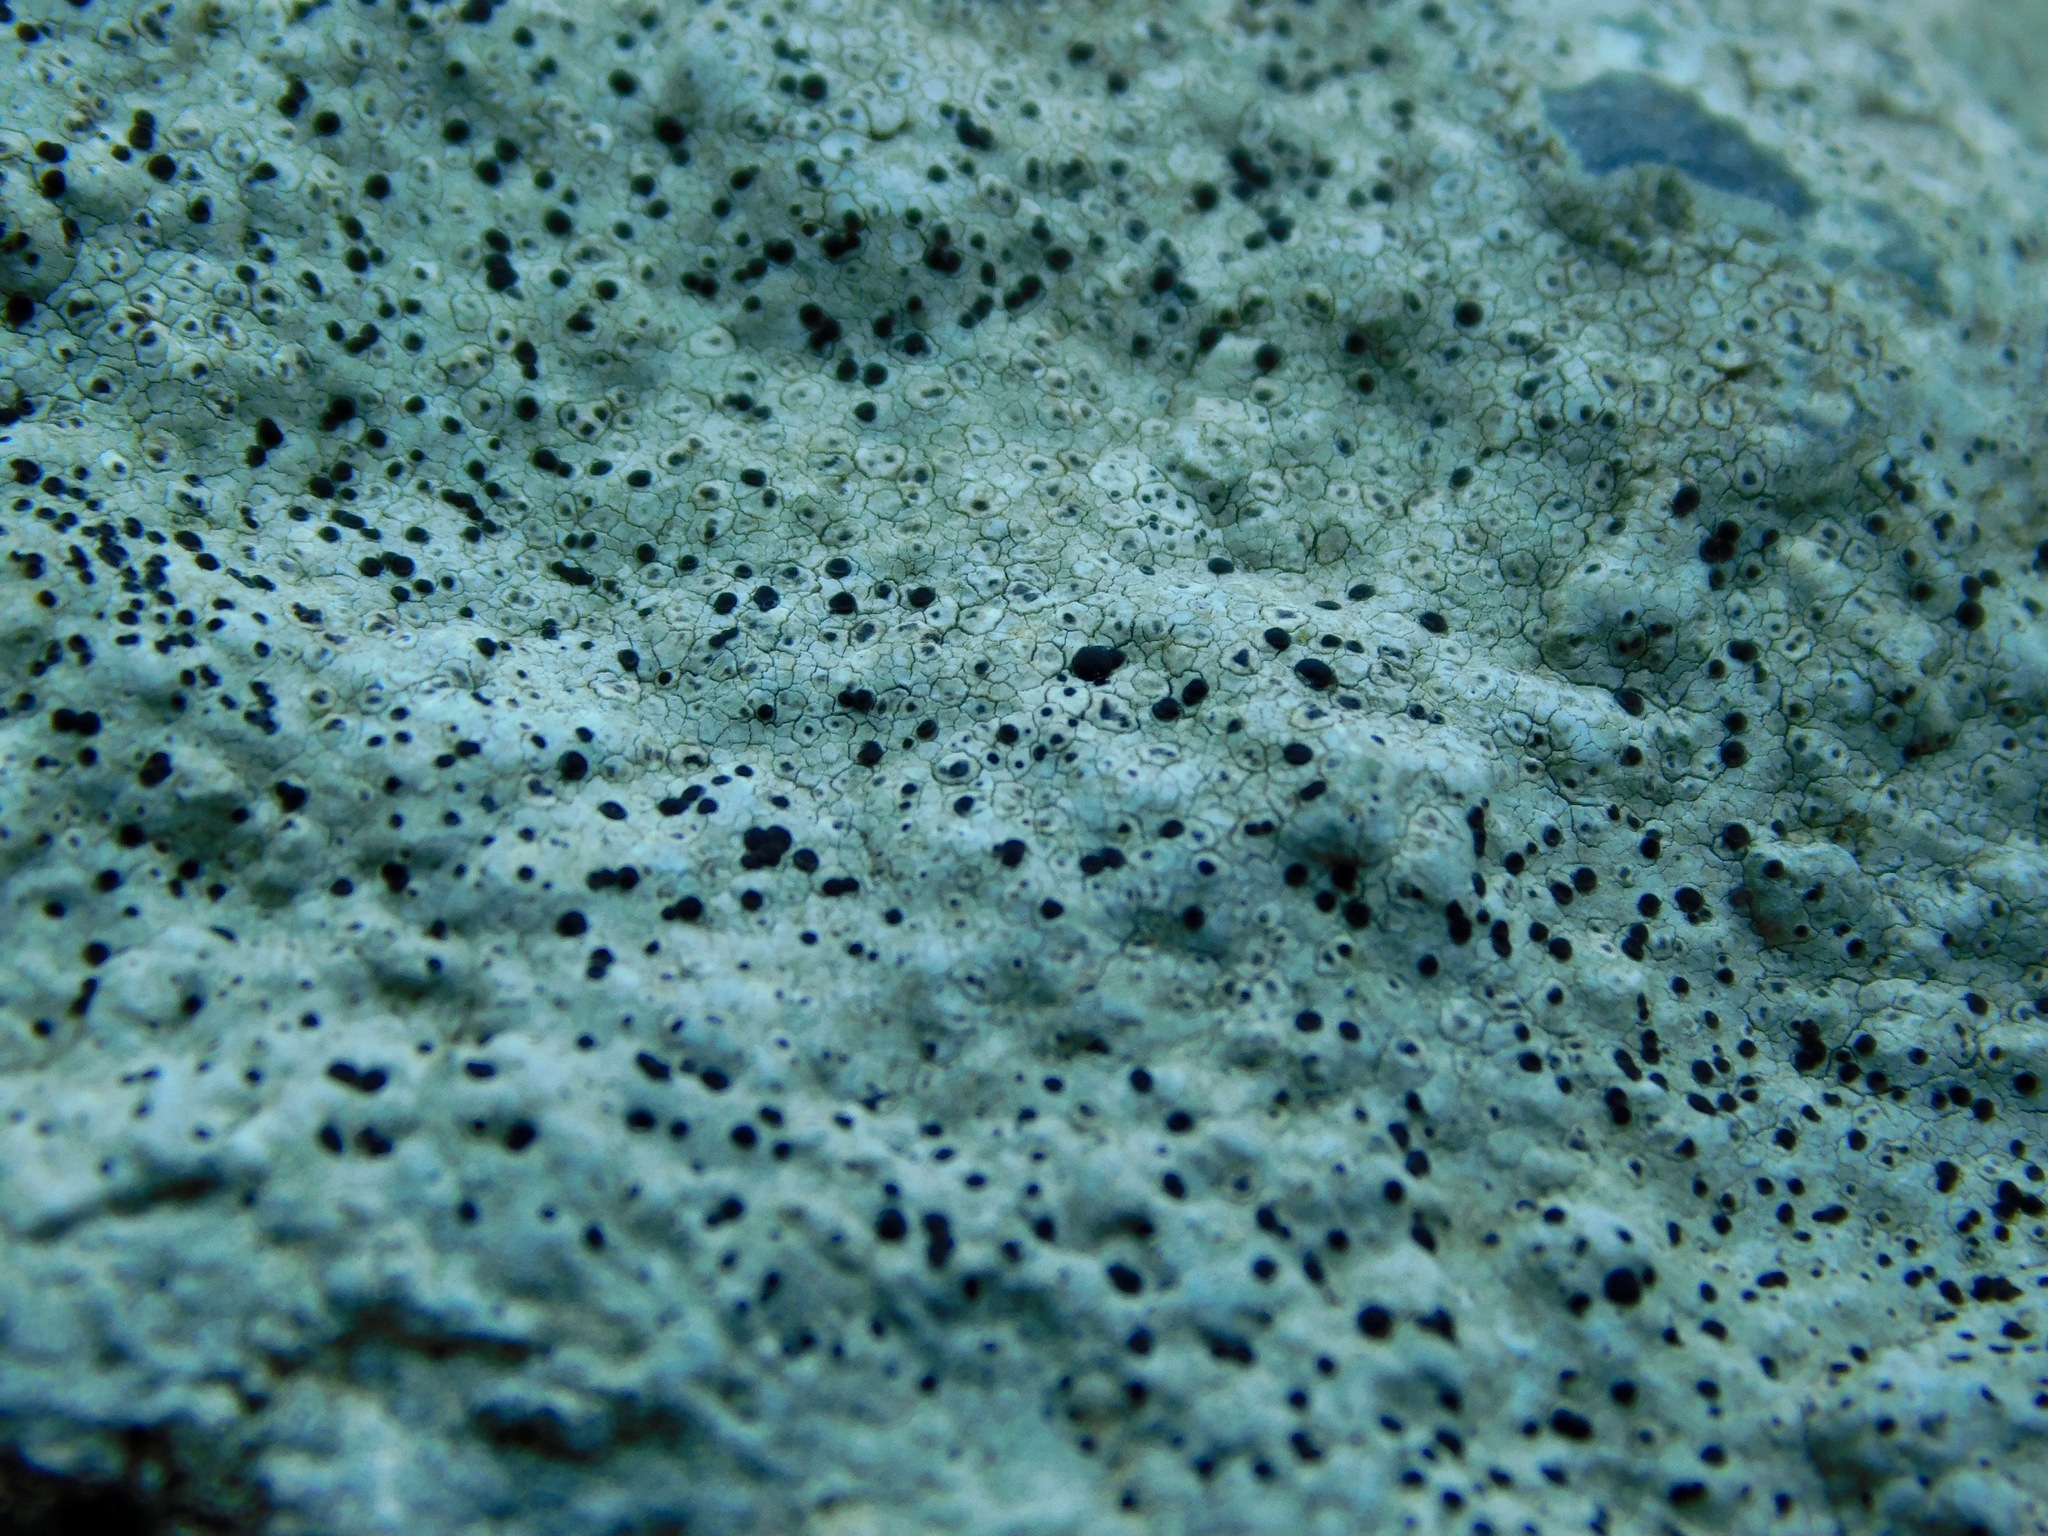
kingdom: Fungi
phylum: Ascomycota
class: Lecanoromycetes
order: Caliciales
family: Caliciaceae
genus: Buellia
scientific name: Buellia mamillana
